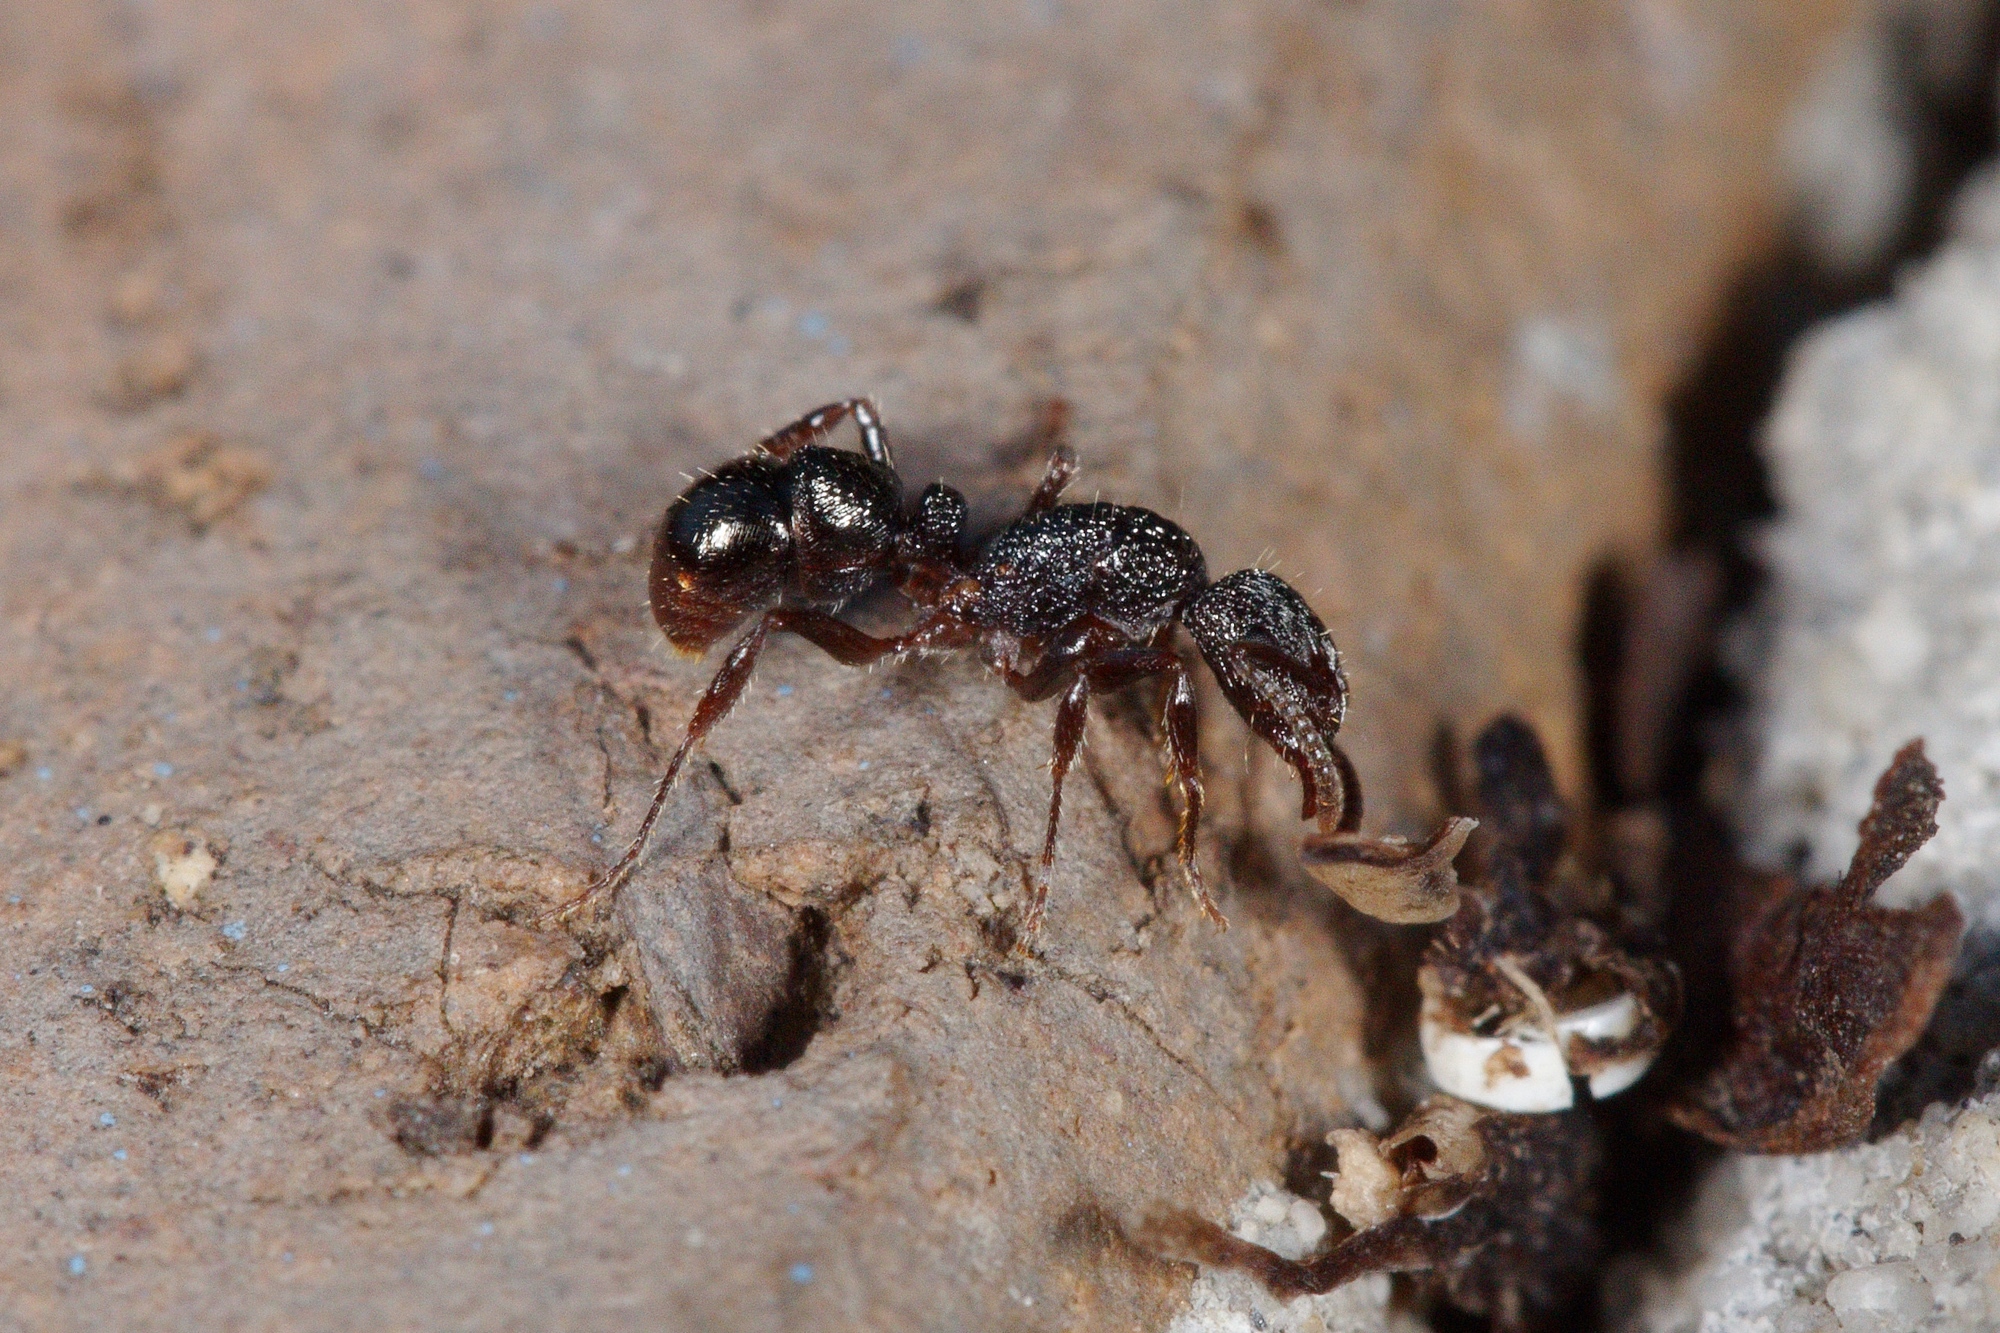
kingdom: Animalia
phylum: Arthropoda
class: Insecta
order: Hymenoptera
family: Formicidae
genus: Rhytidoponera
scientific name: Rhytidoponera victoriae
